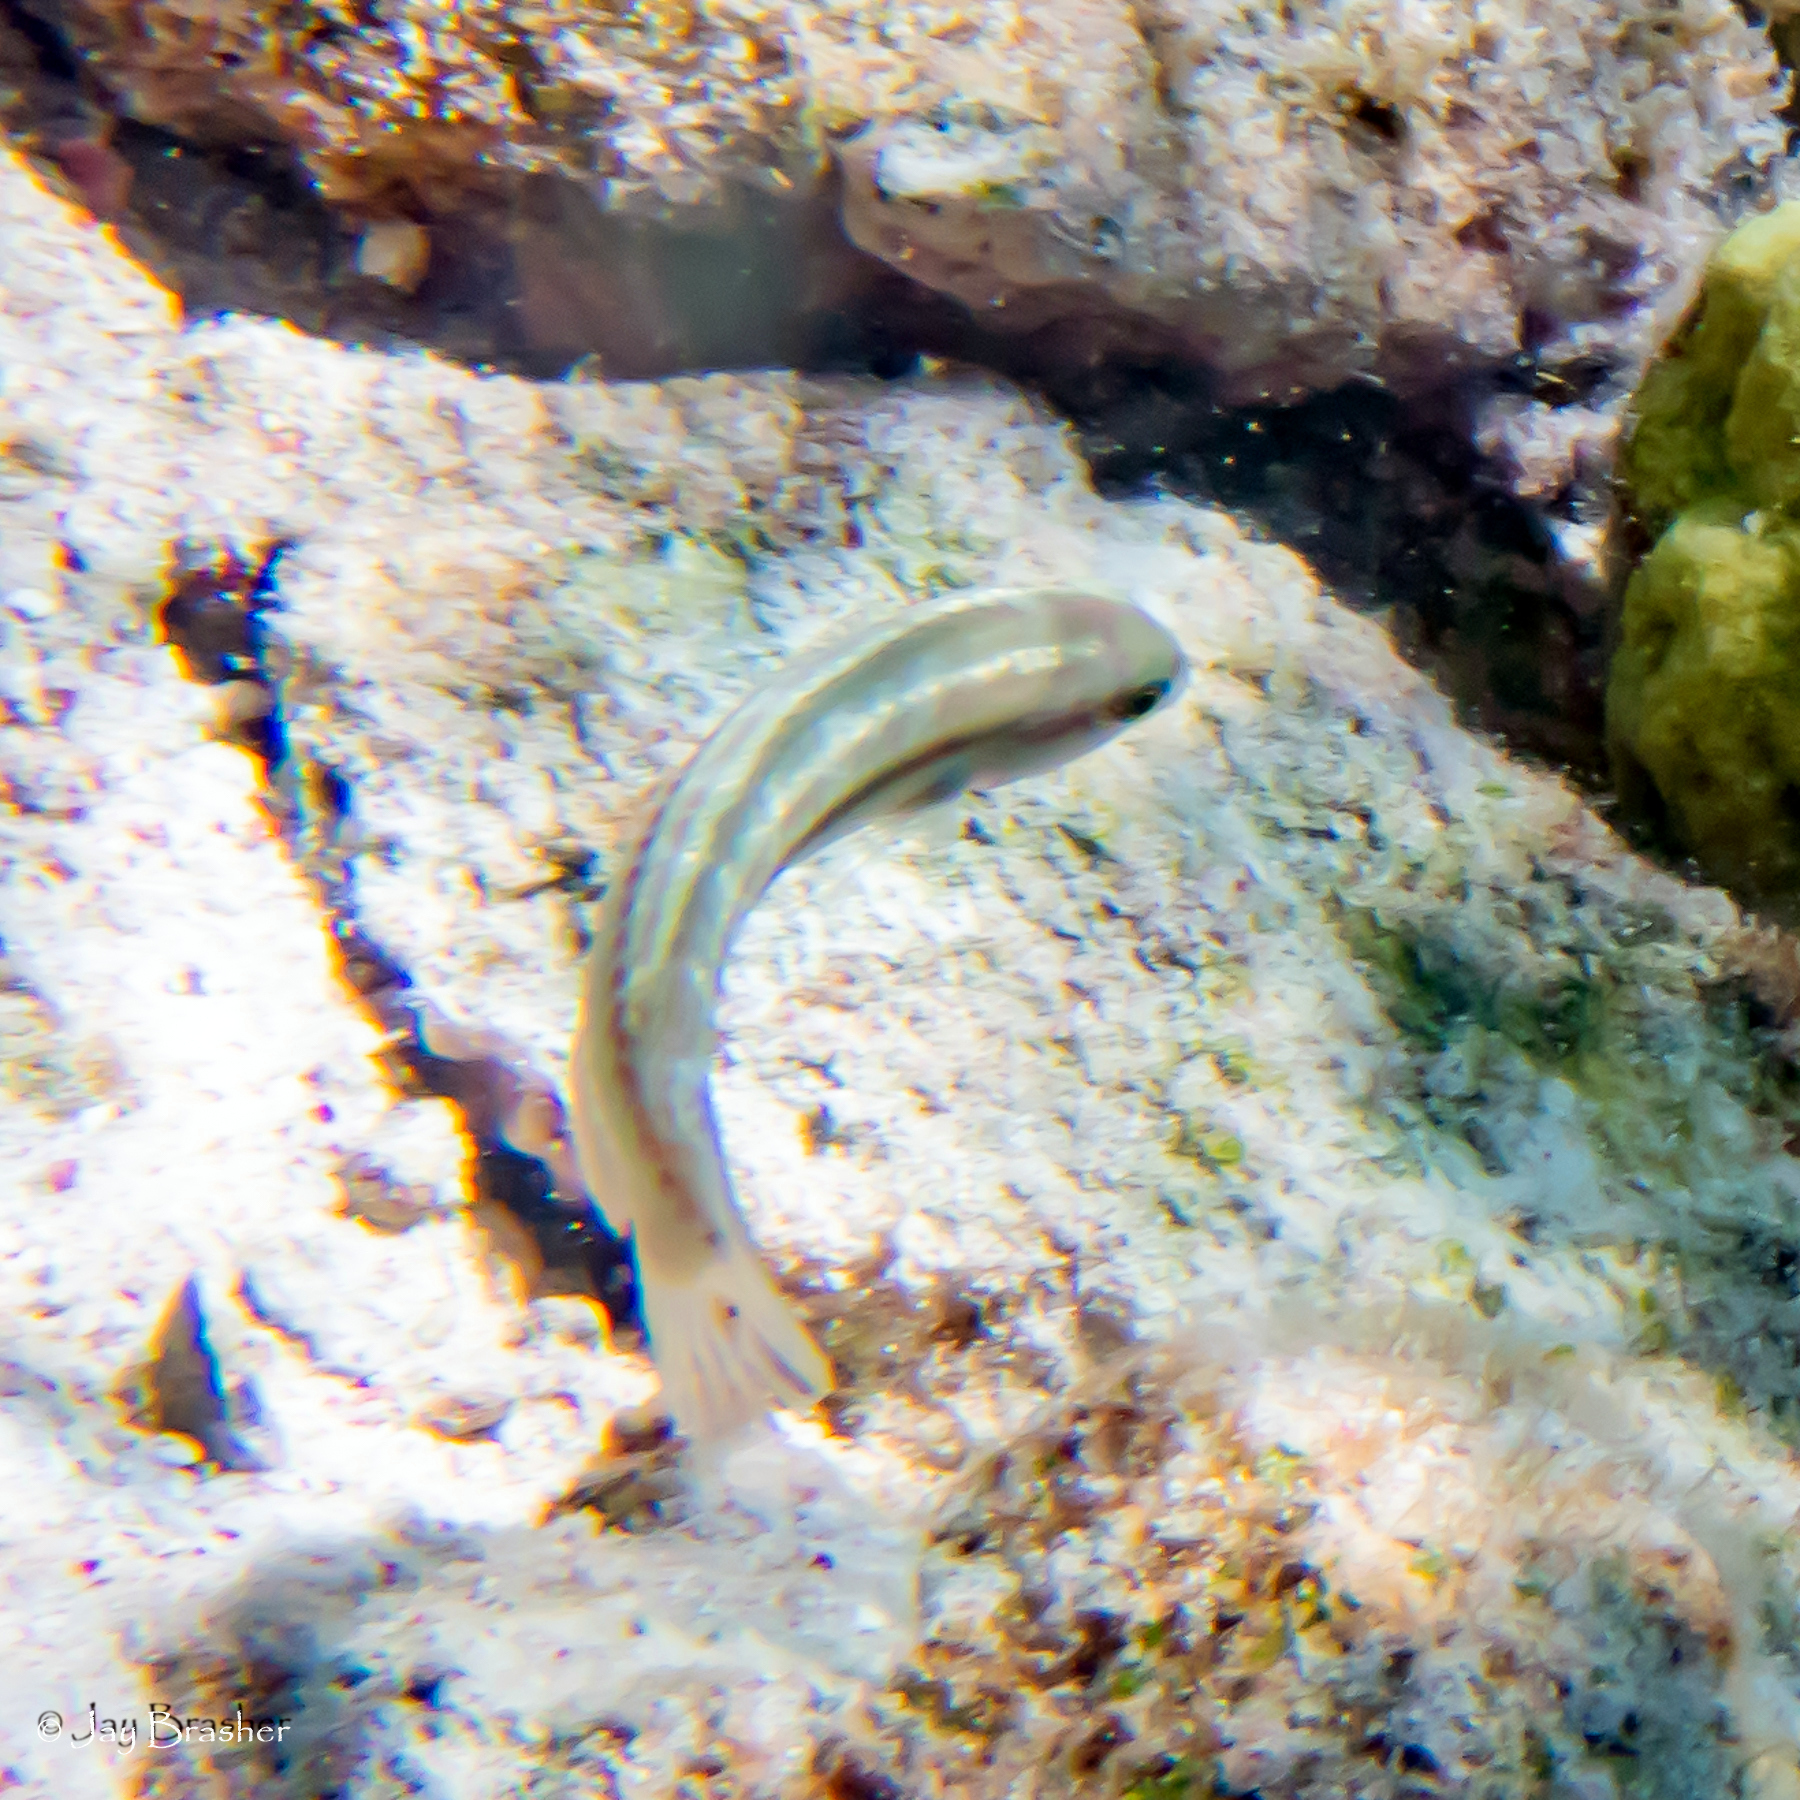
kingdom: Animalia
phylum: Chordata
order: Perciformes
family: Labridae
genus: Halichoeres
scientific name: Halichoeres bivittatus
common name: Slippery dick
